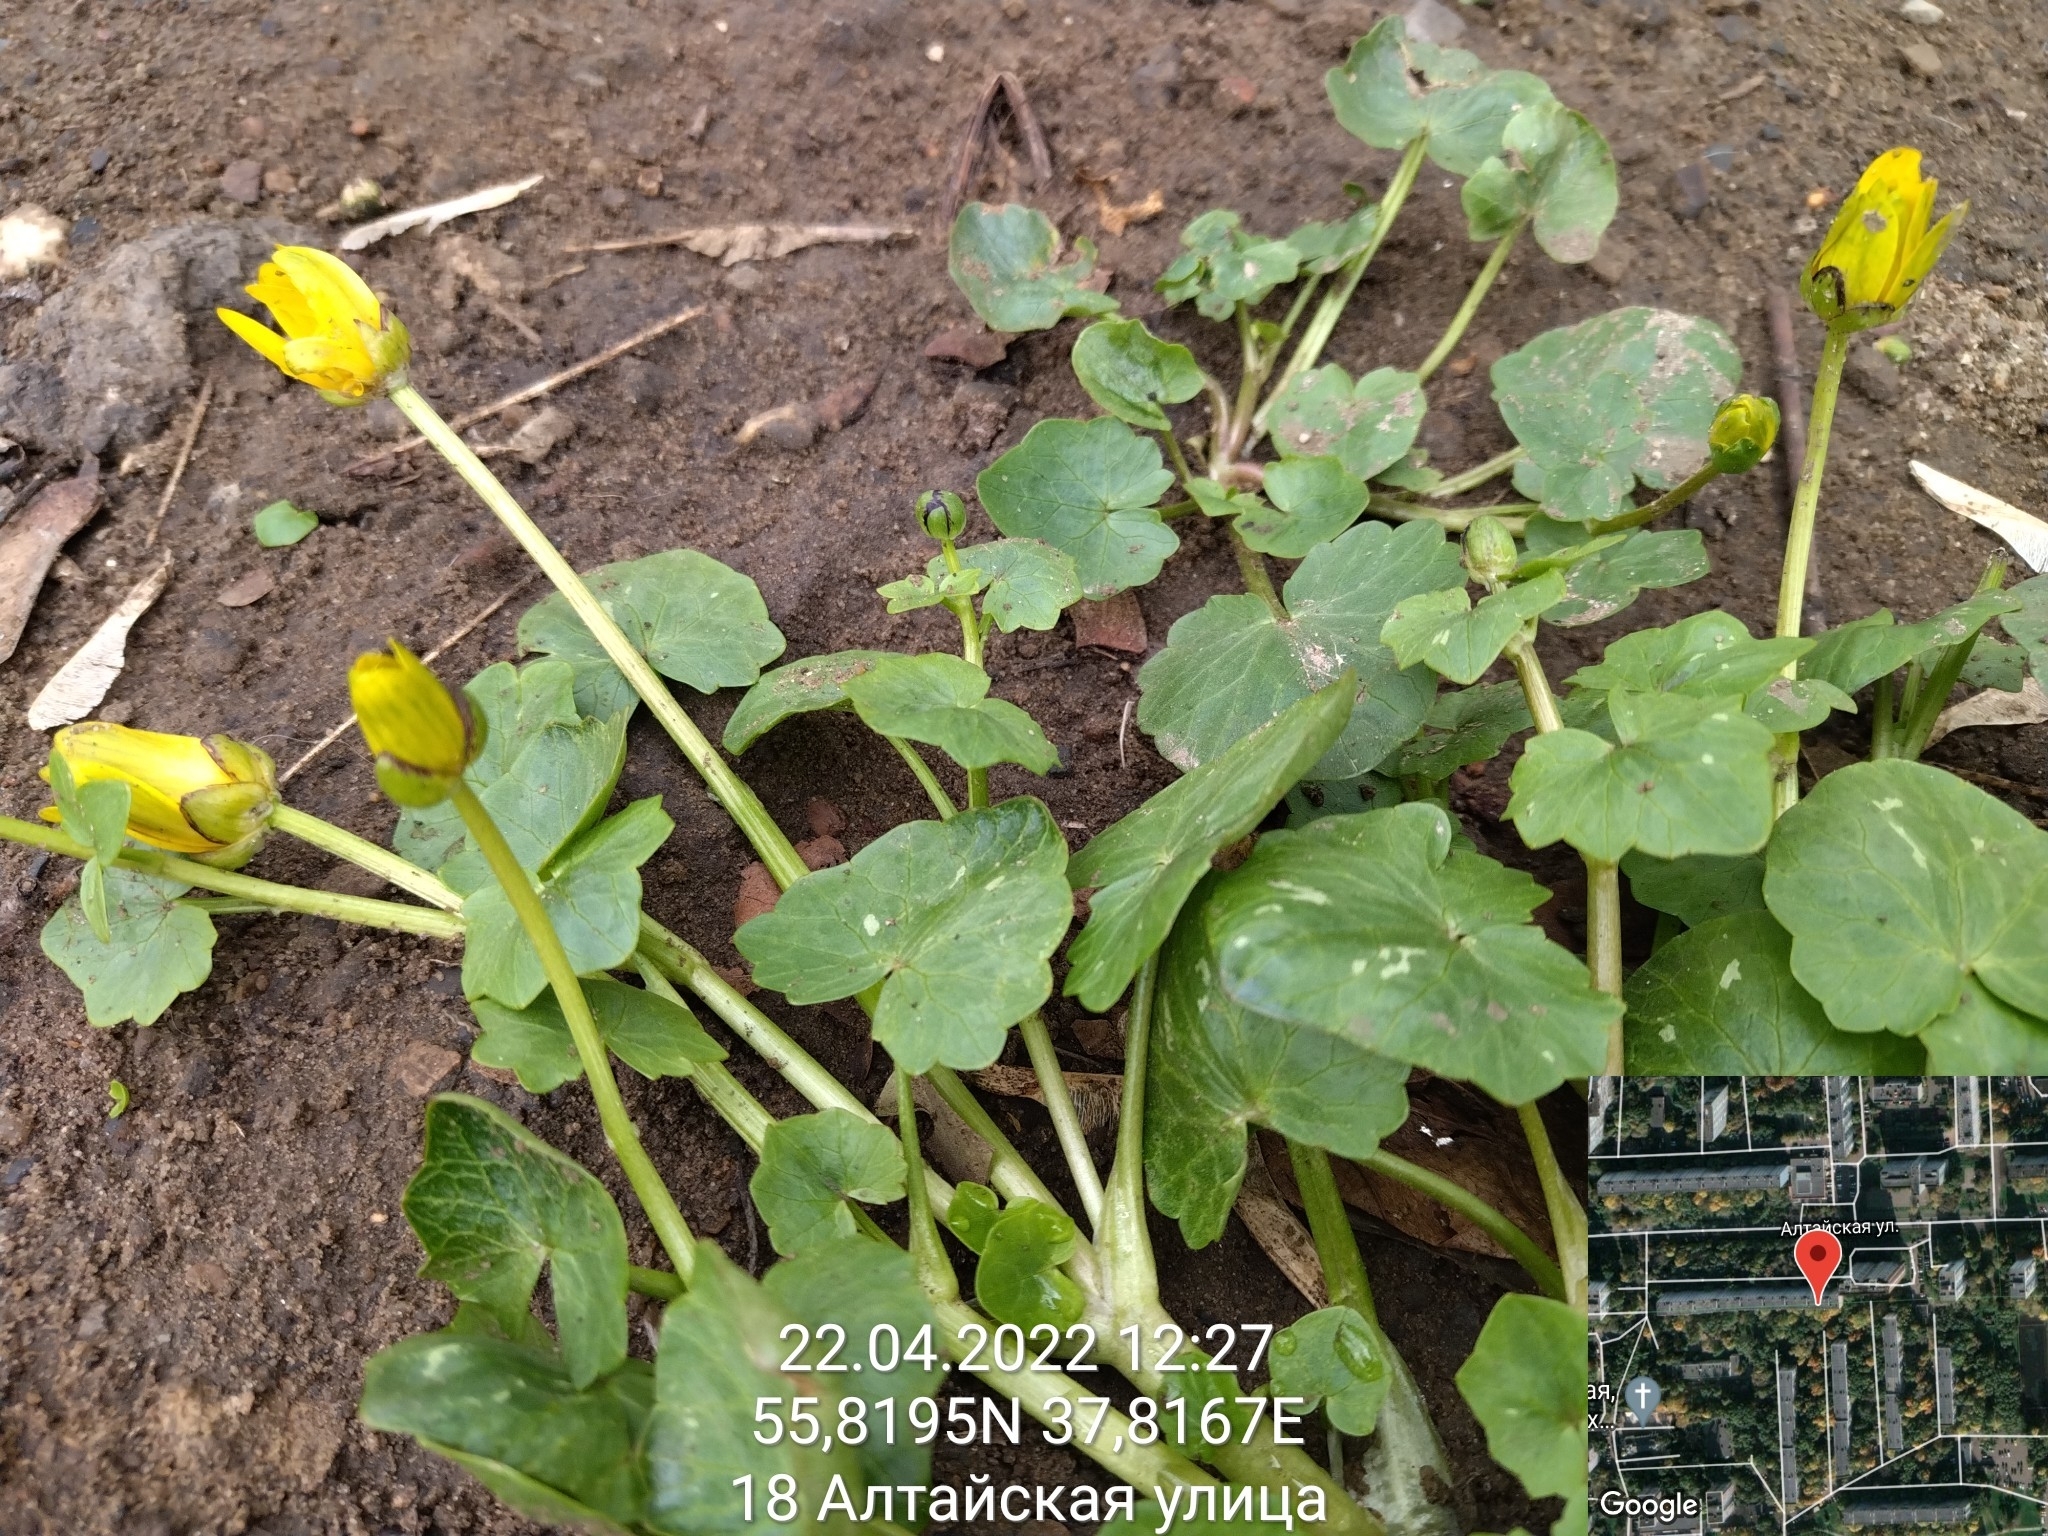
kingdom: Plantae
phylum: Tracheophyta
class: Magnoliopsida
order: Ranunculales
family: Ranunculaceae
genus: Ficaria
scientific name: Ficaria verna
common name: Lesser celandine
